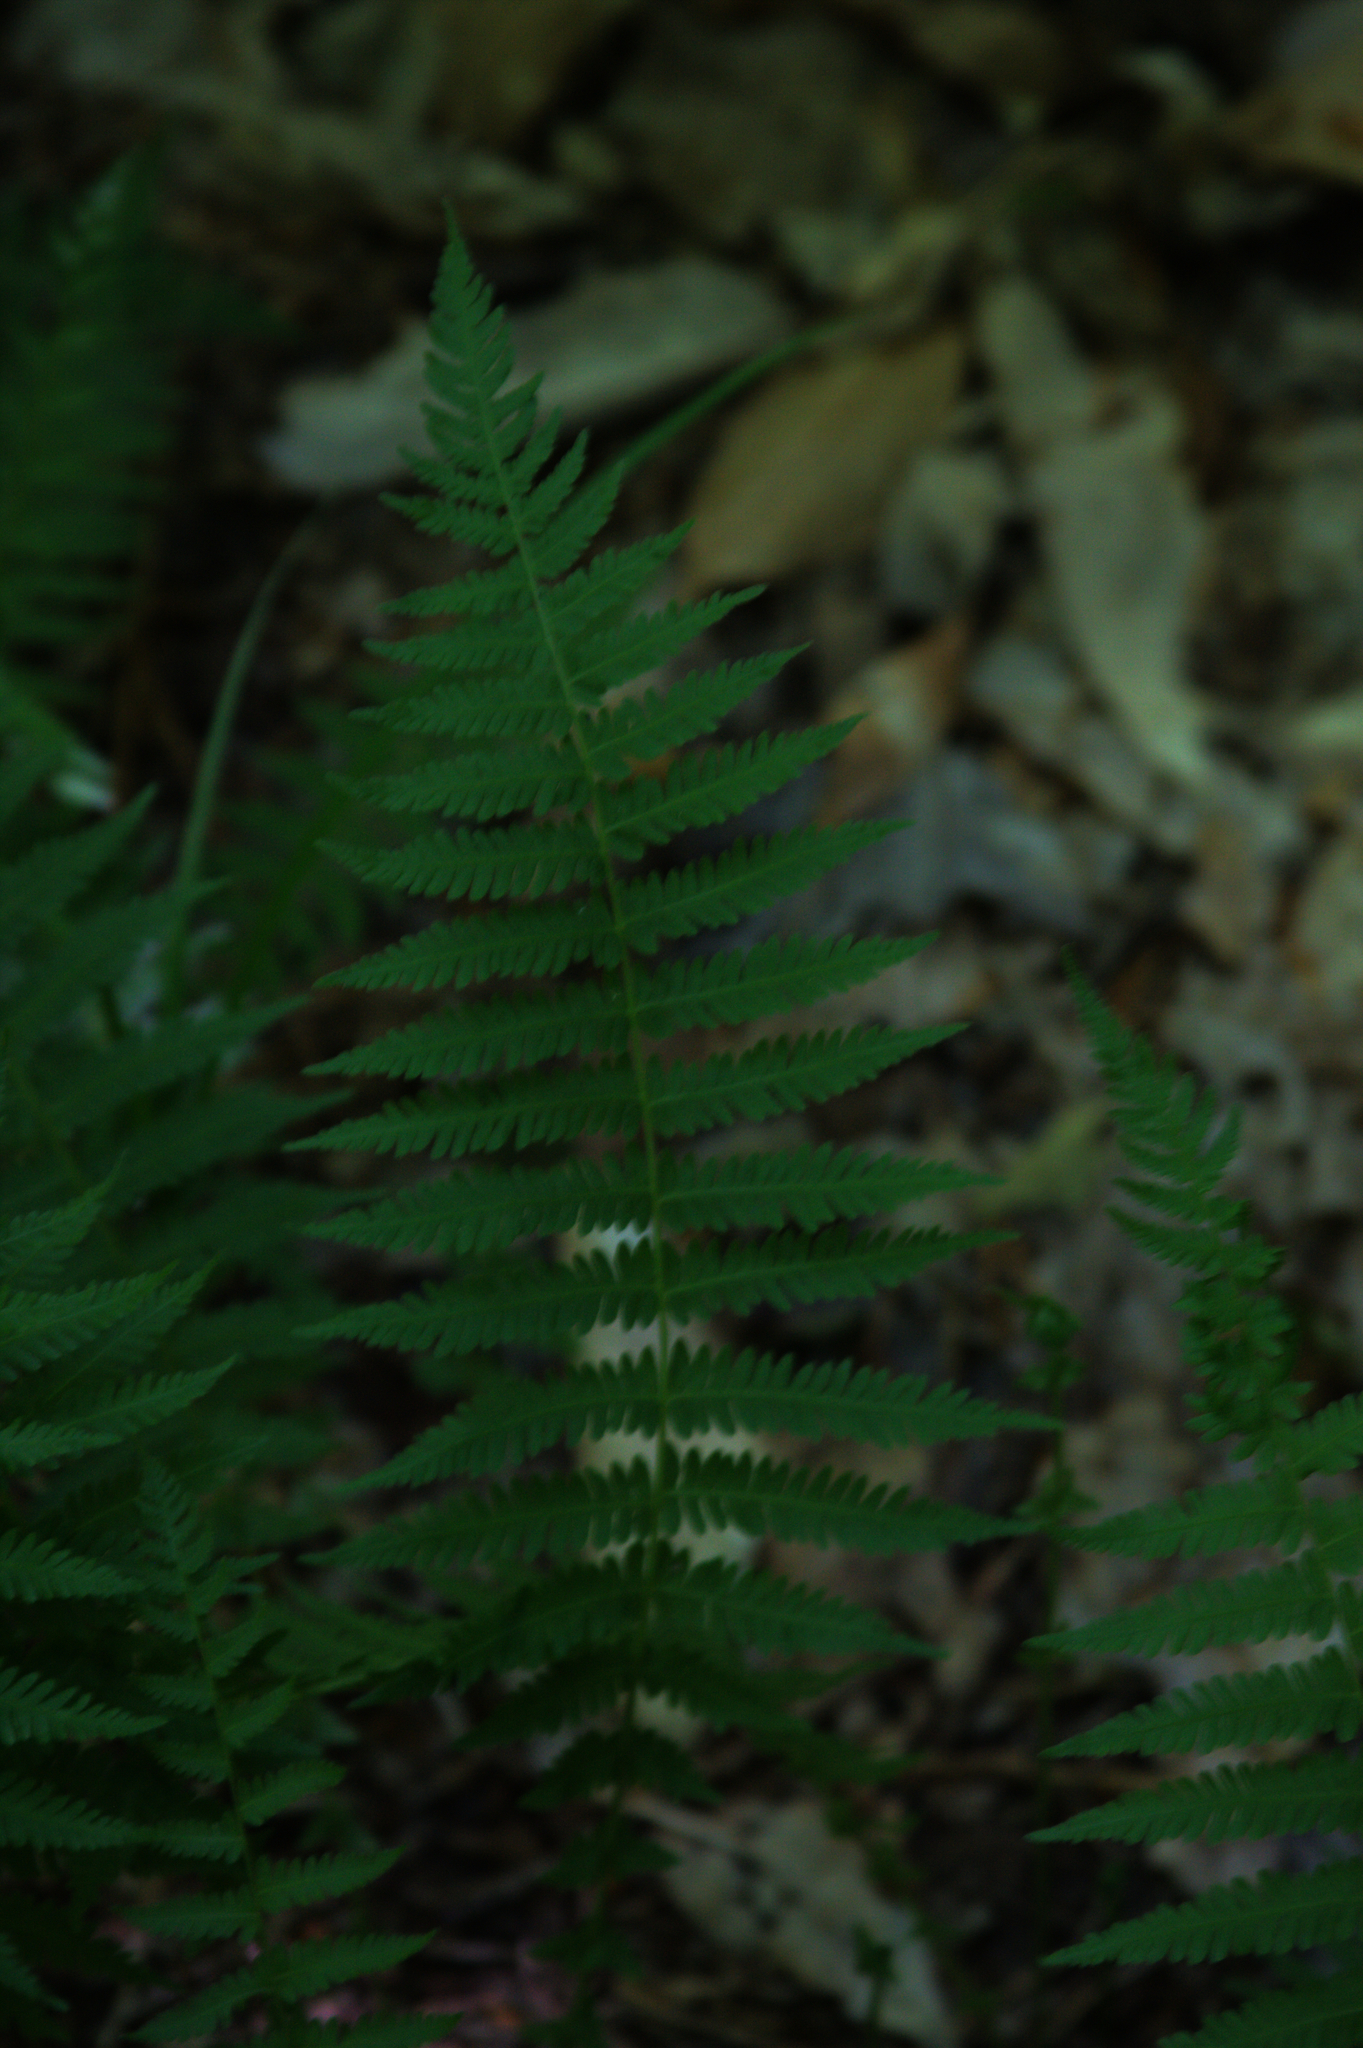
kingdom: Plantae
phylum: Tracheophyta
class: Polypodiopsida
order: Polypodiales
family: Thelypteridaceae
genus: Amauropelta
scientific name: Amauropelta noveboracensis
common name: New york fern
